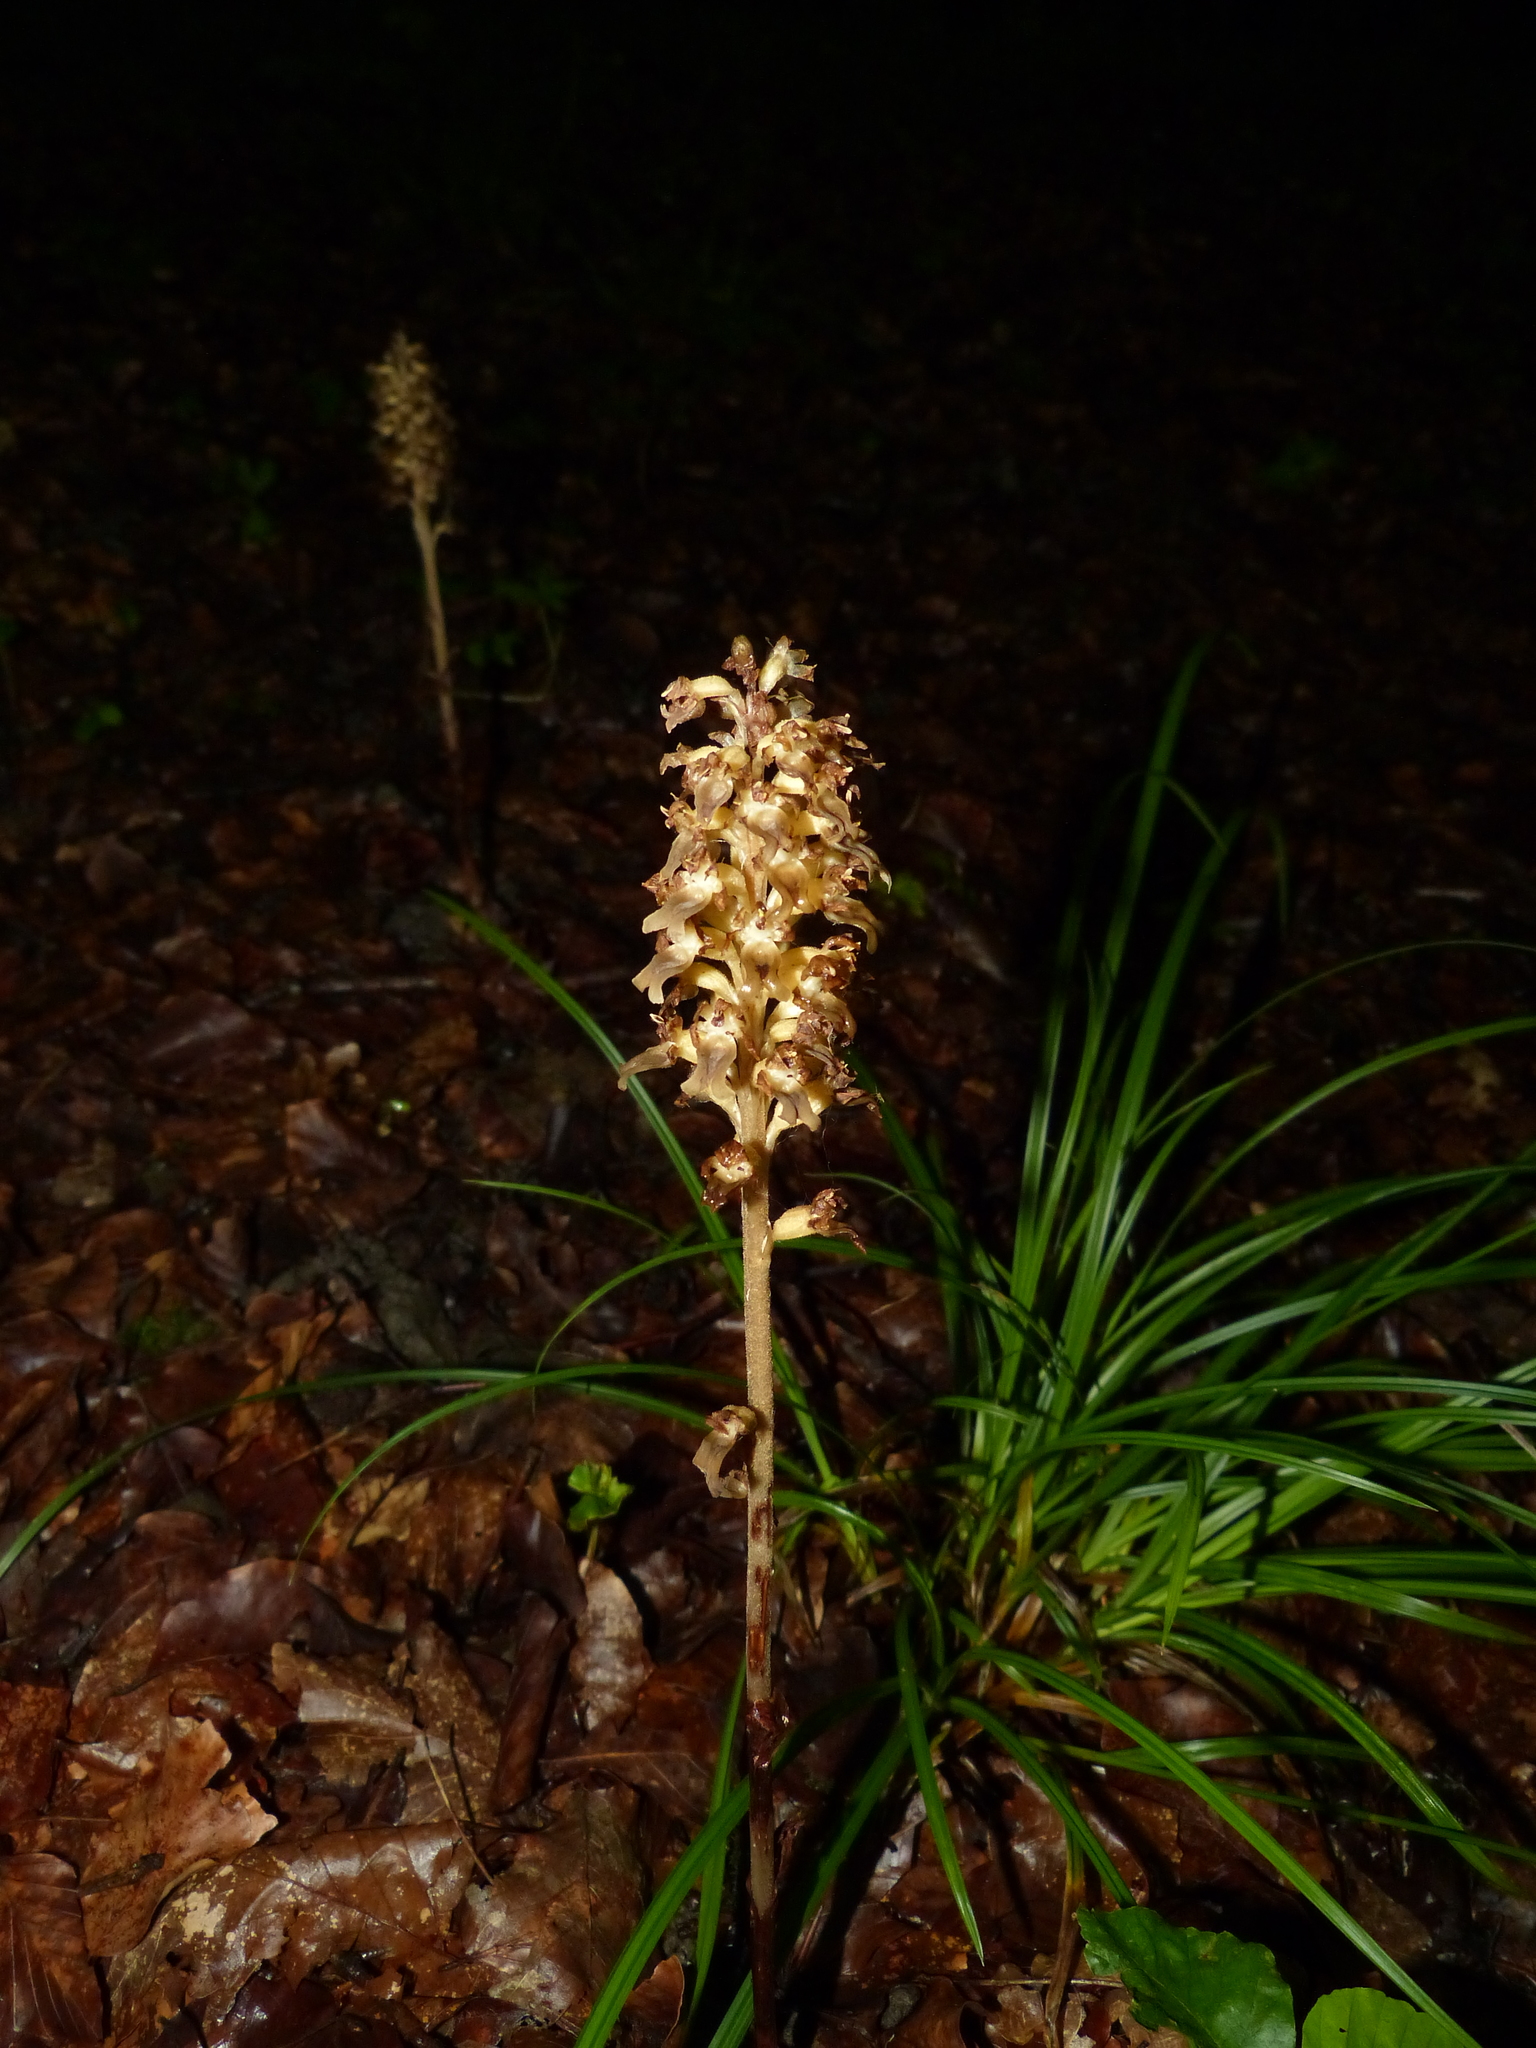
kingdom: Plantae
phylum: Tracheophyta
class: Liliopsida
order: Asparagales
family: Orchidaceae
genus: Neottia
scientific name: Neottia nidus-avis
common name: Bird's-nest orchid
